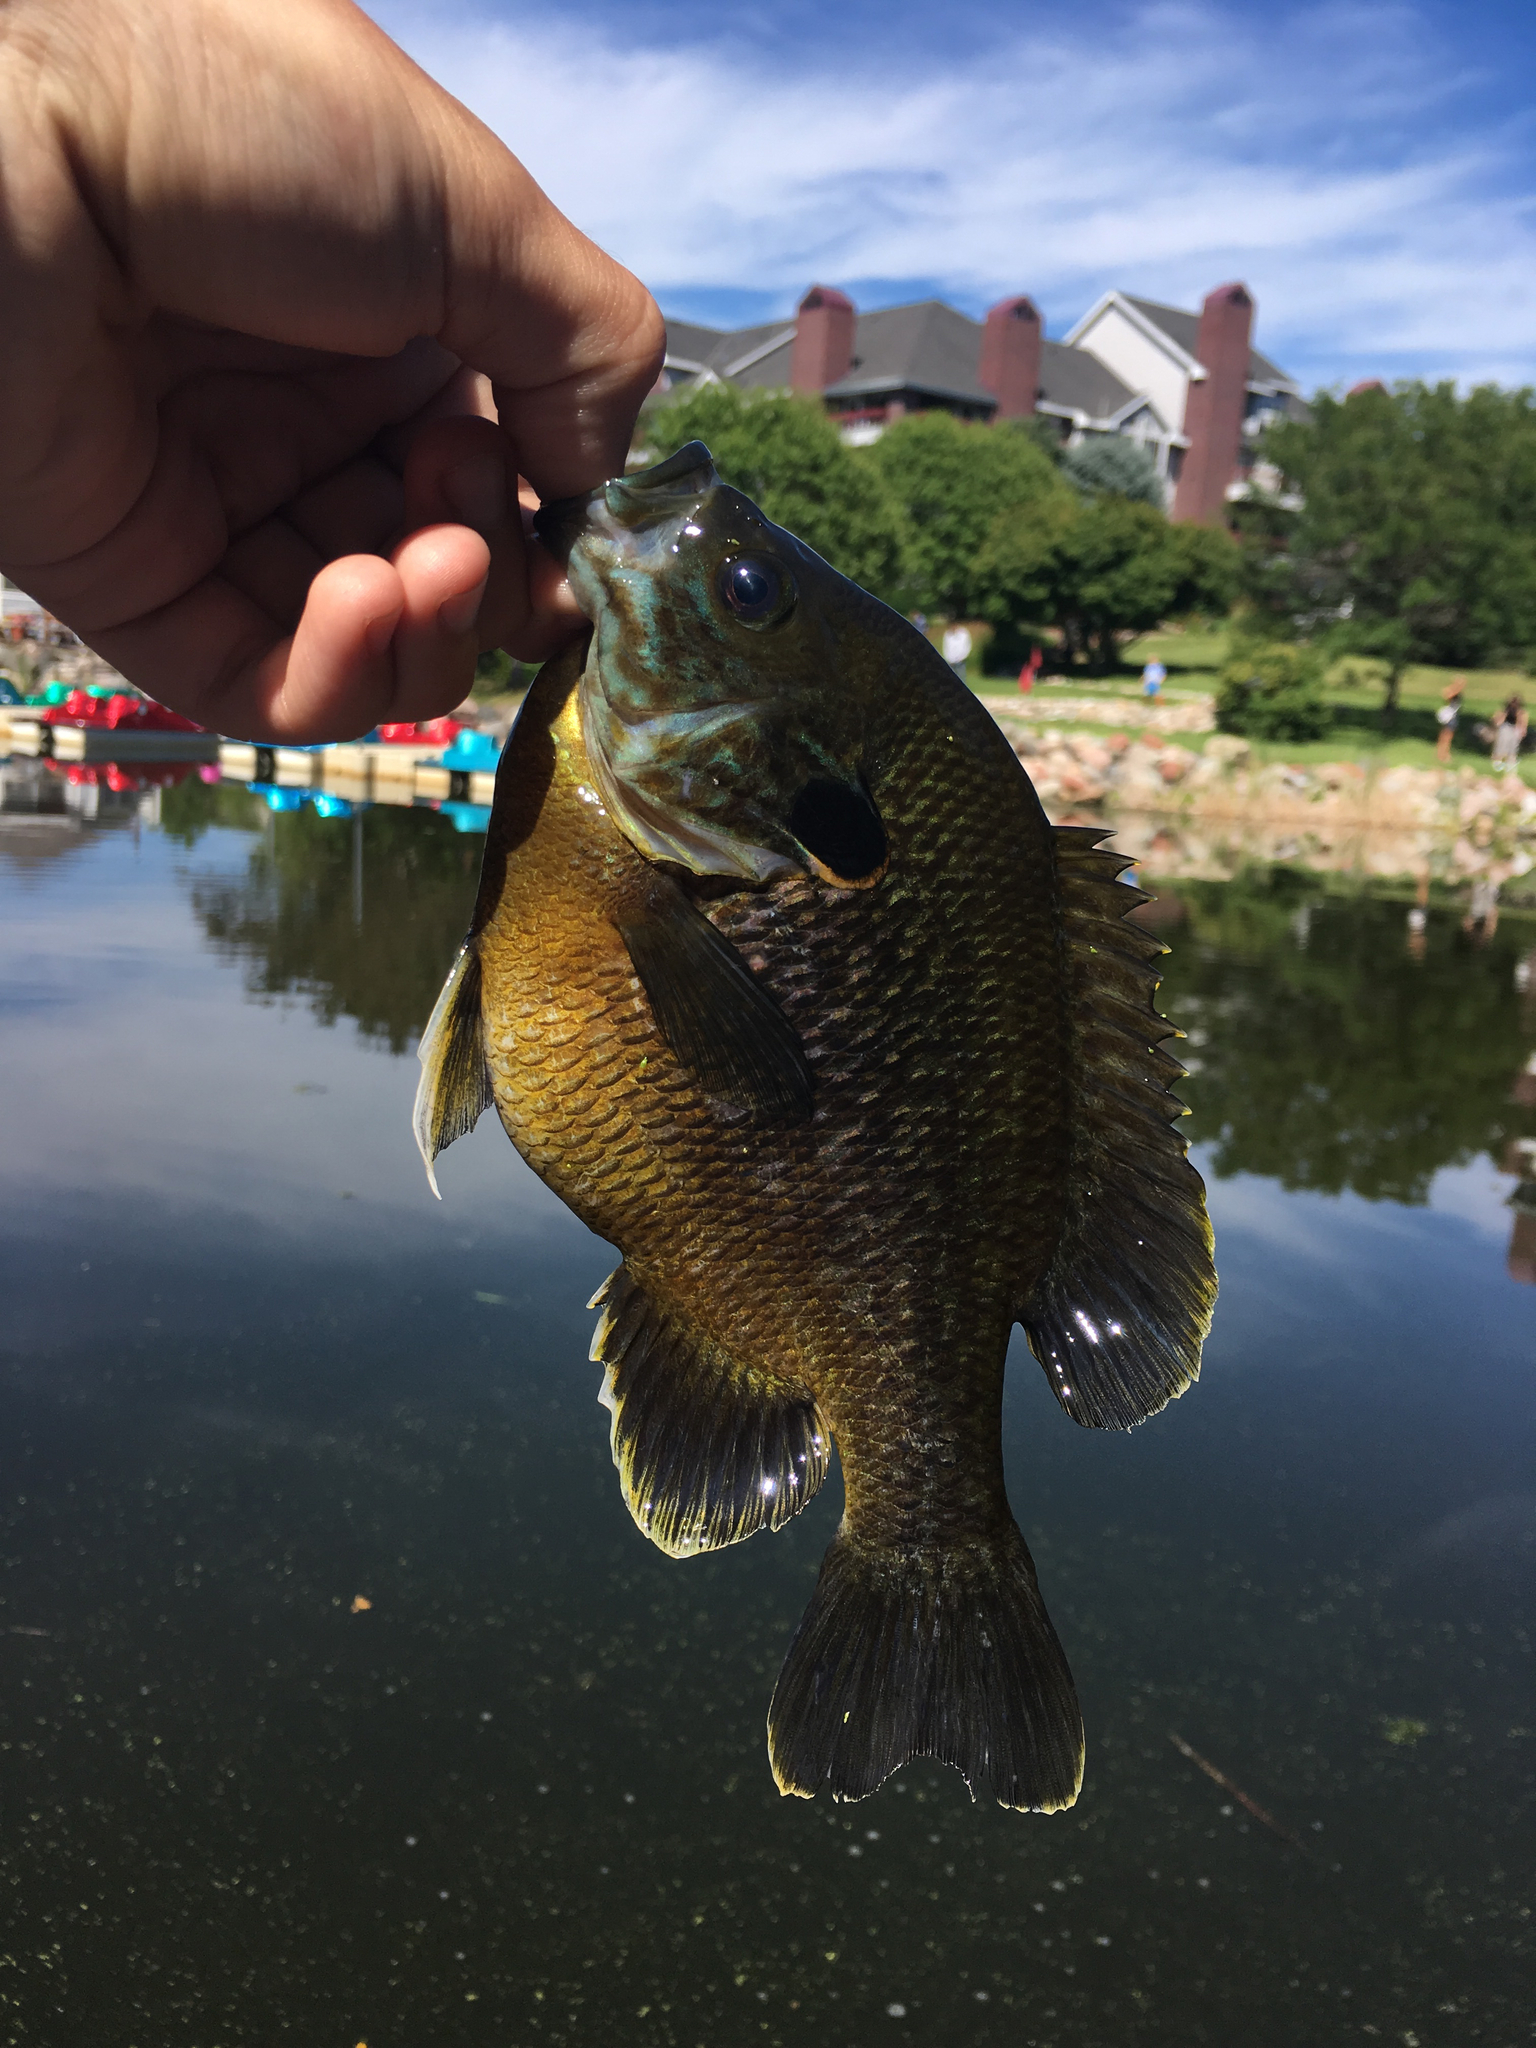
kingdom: Animalia
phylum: Chordata
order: Perciformes
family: Centrarchidae
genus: Lepomis
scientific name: Lepomis cyanellus
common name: Green sunfish
